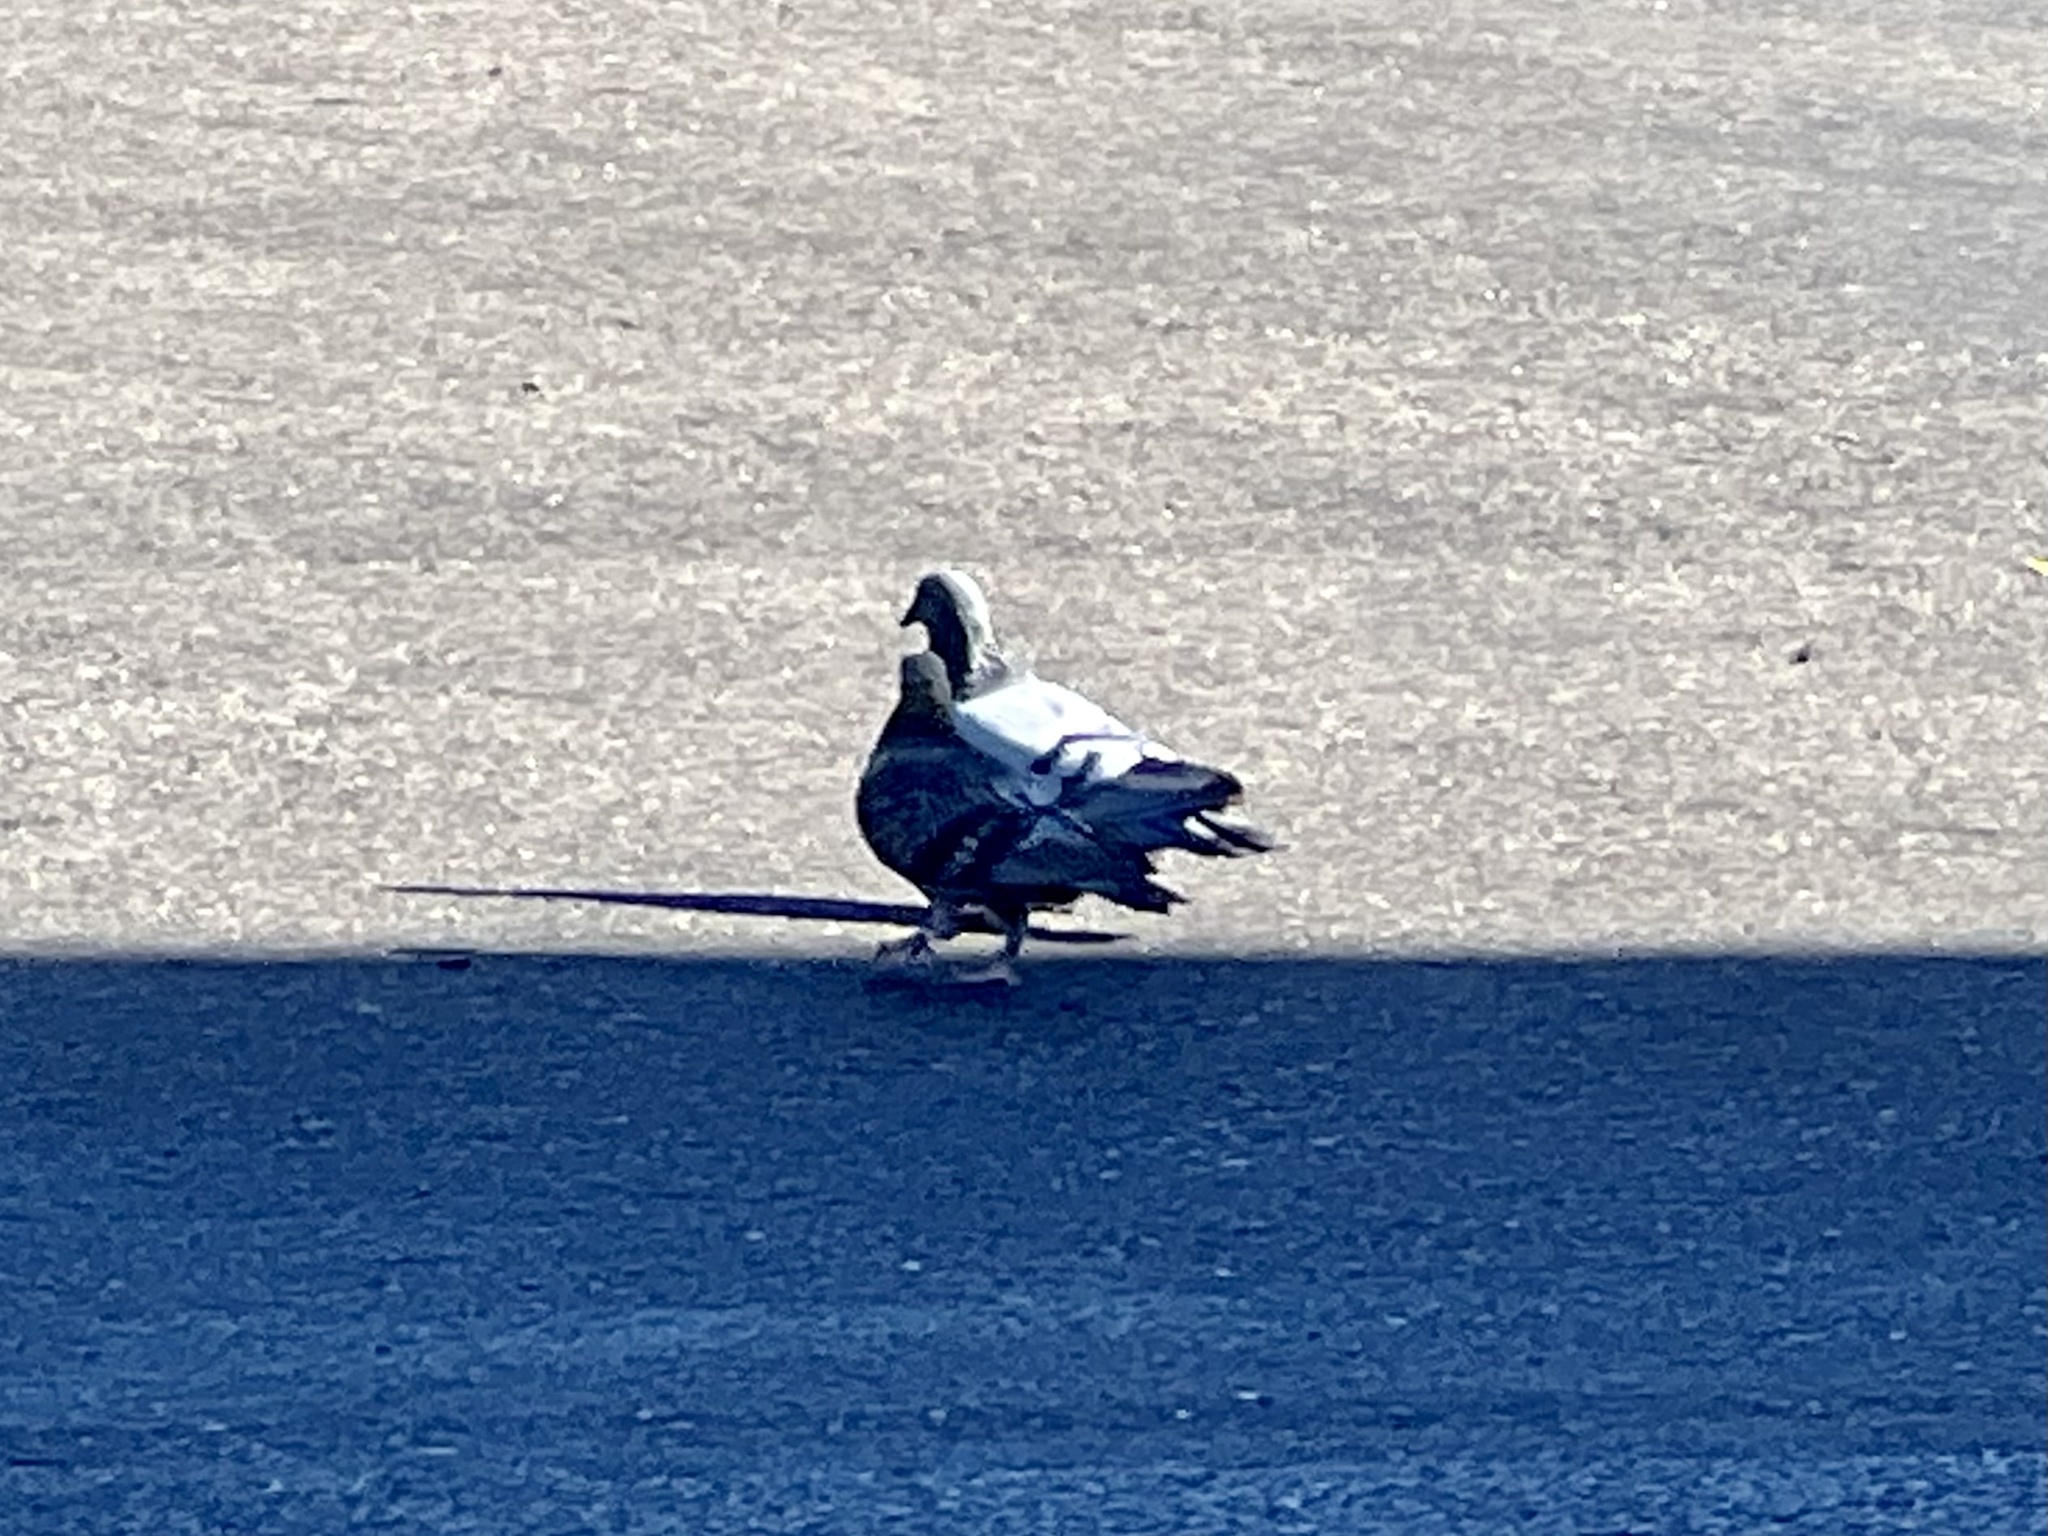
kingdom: Animalia
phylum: Chordata
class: Aves
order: Columbiformes
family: Columbidae
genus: Columba
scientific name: Columba livia
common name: Rock pigeon
